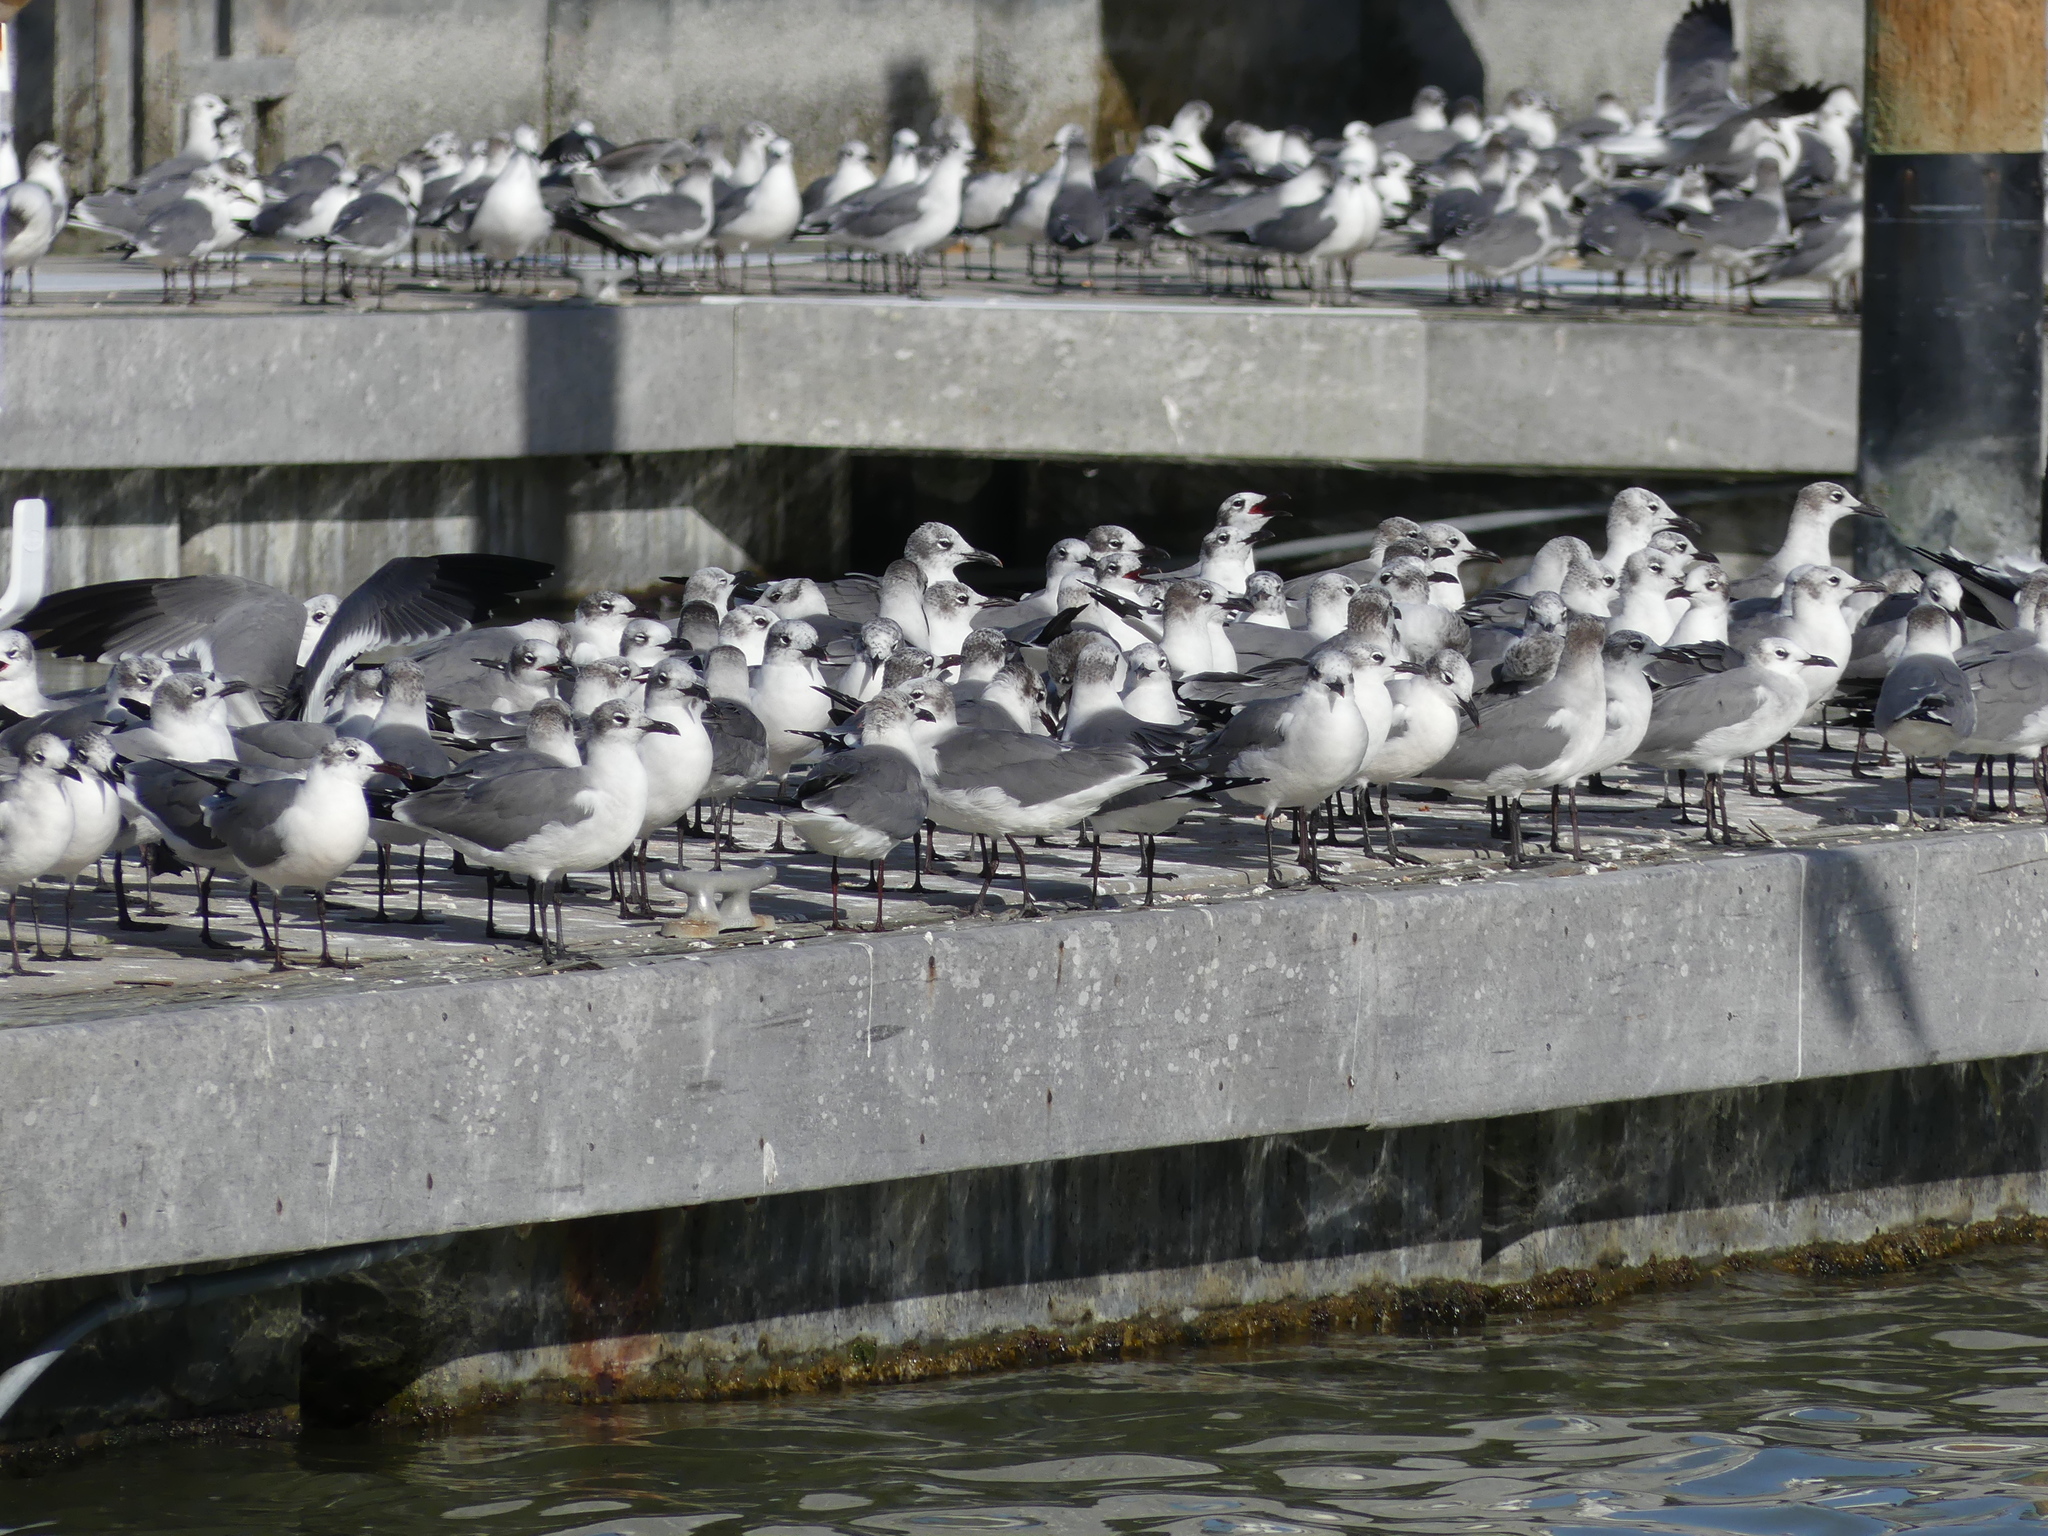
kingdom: Animalia
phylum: Chordata
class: Aves
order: Charadriiformes
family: Laridae
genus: Leucophaeus
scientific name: Leucophaeus atricilla
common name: Laughing gull
